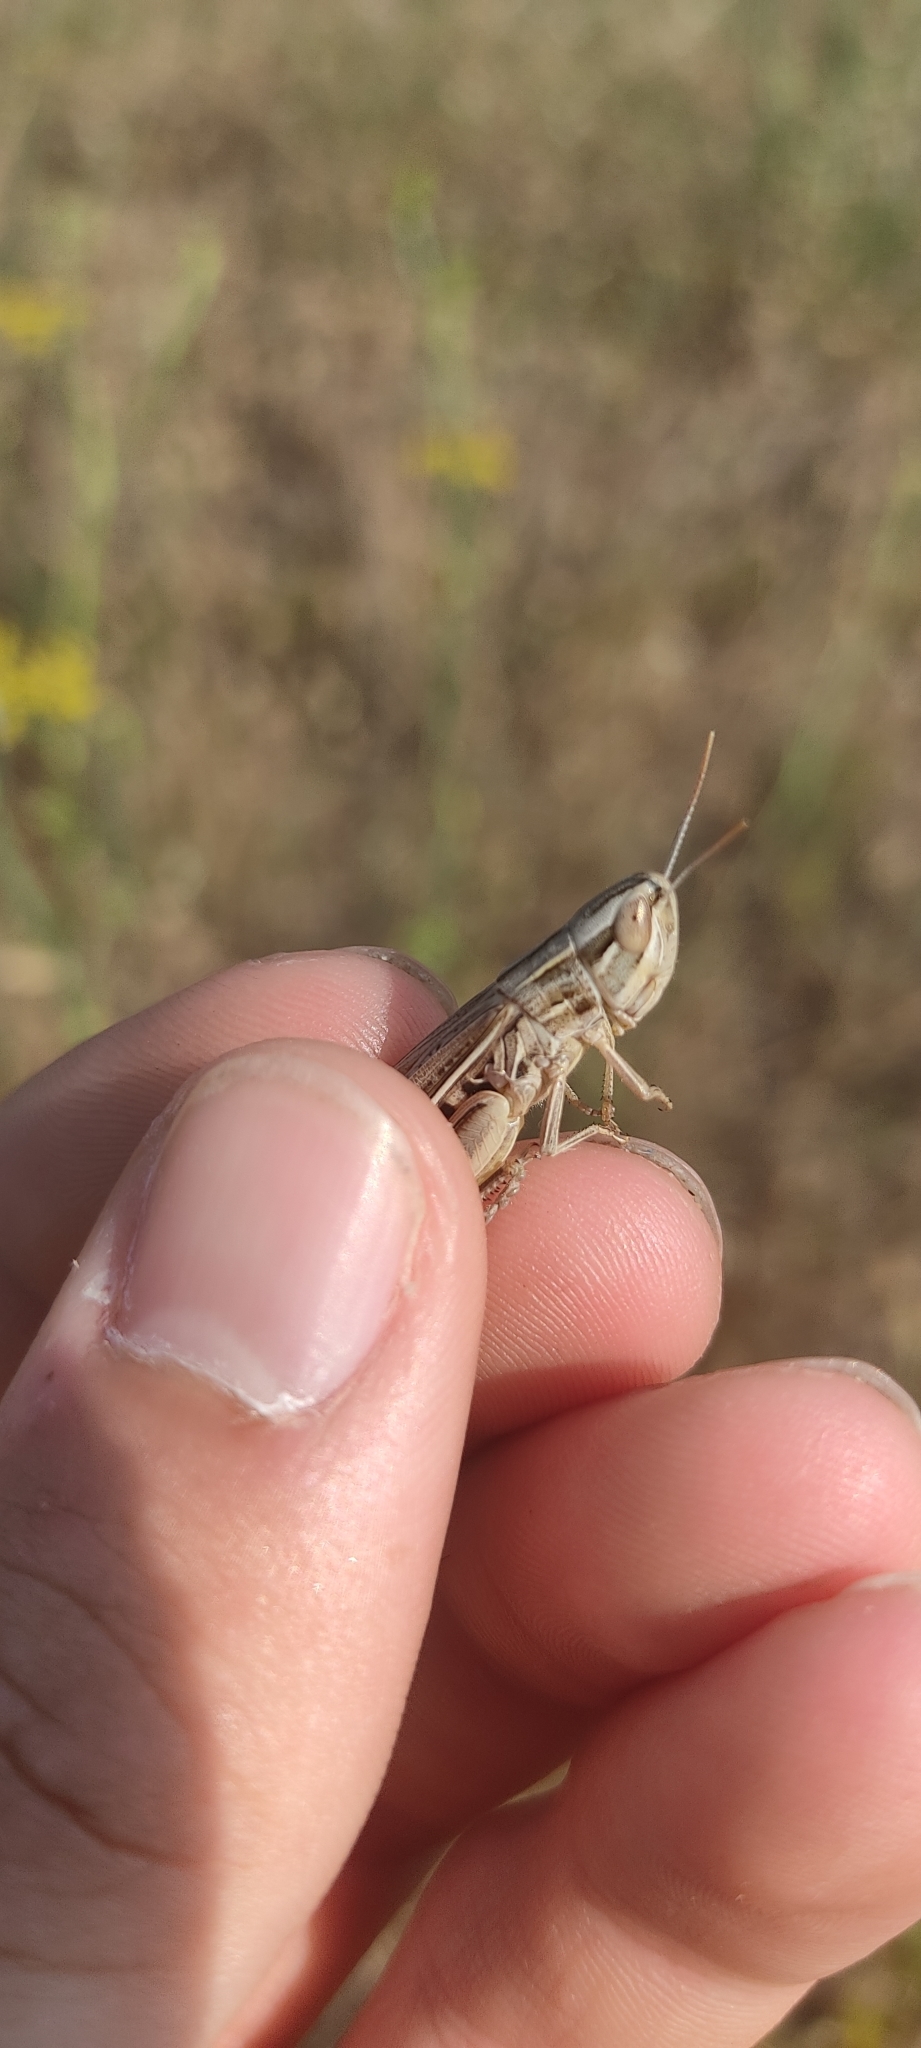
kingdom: Animalia
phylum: Arthropoda
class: Insecta
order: Orthoptera
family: Acrididae
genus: Euchorthippus
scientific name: Euchorthippus elegantulus
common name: Elegant straw grasshopper
